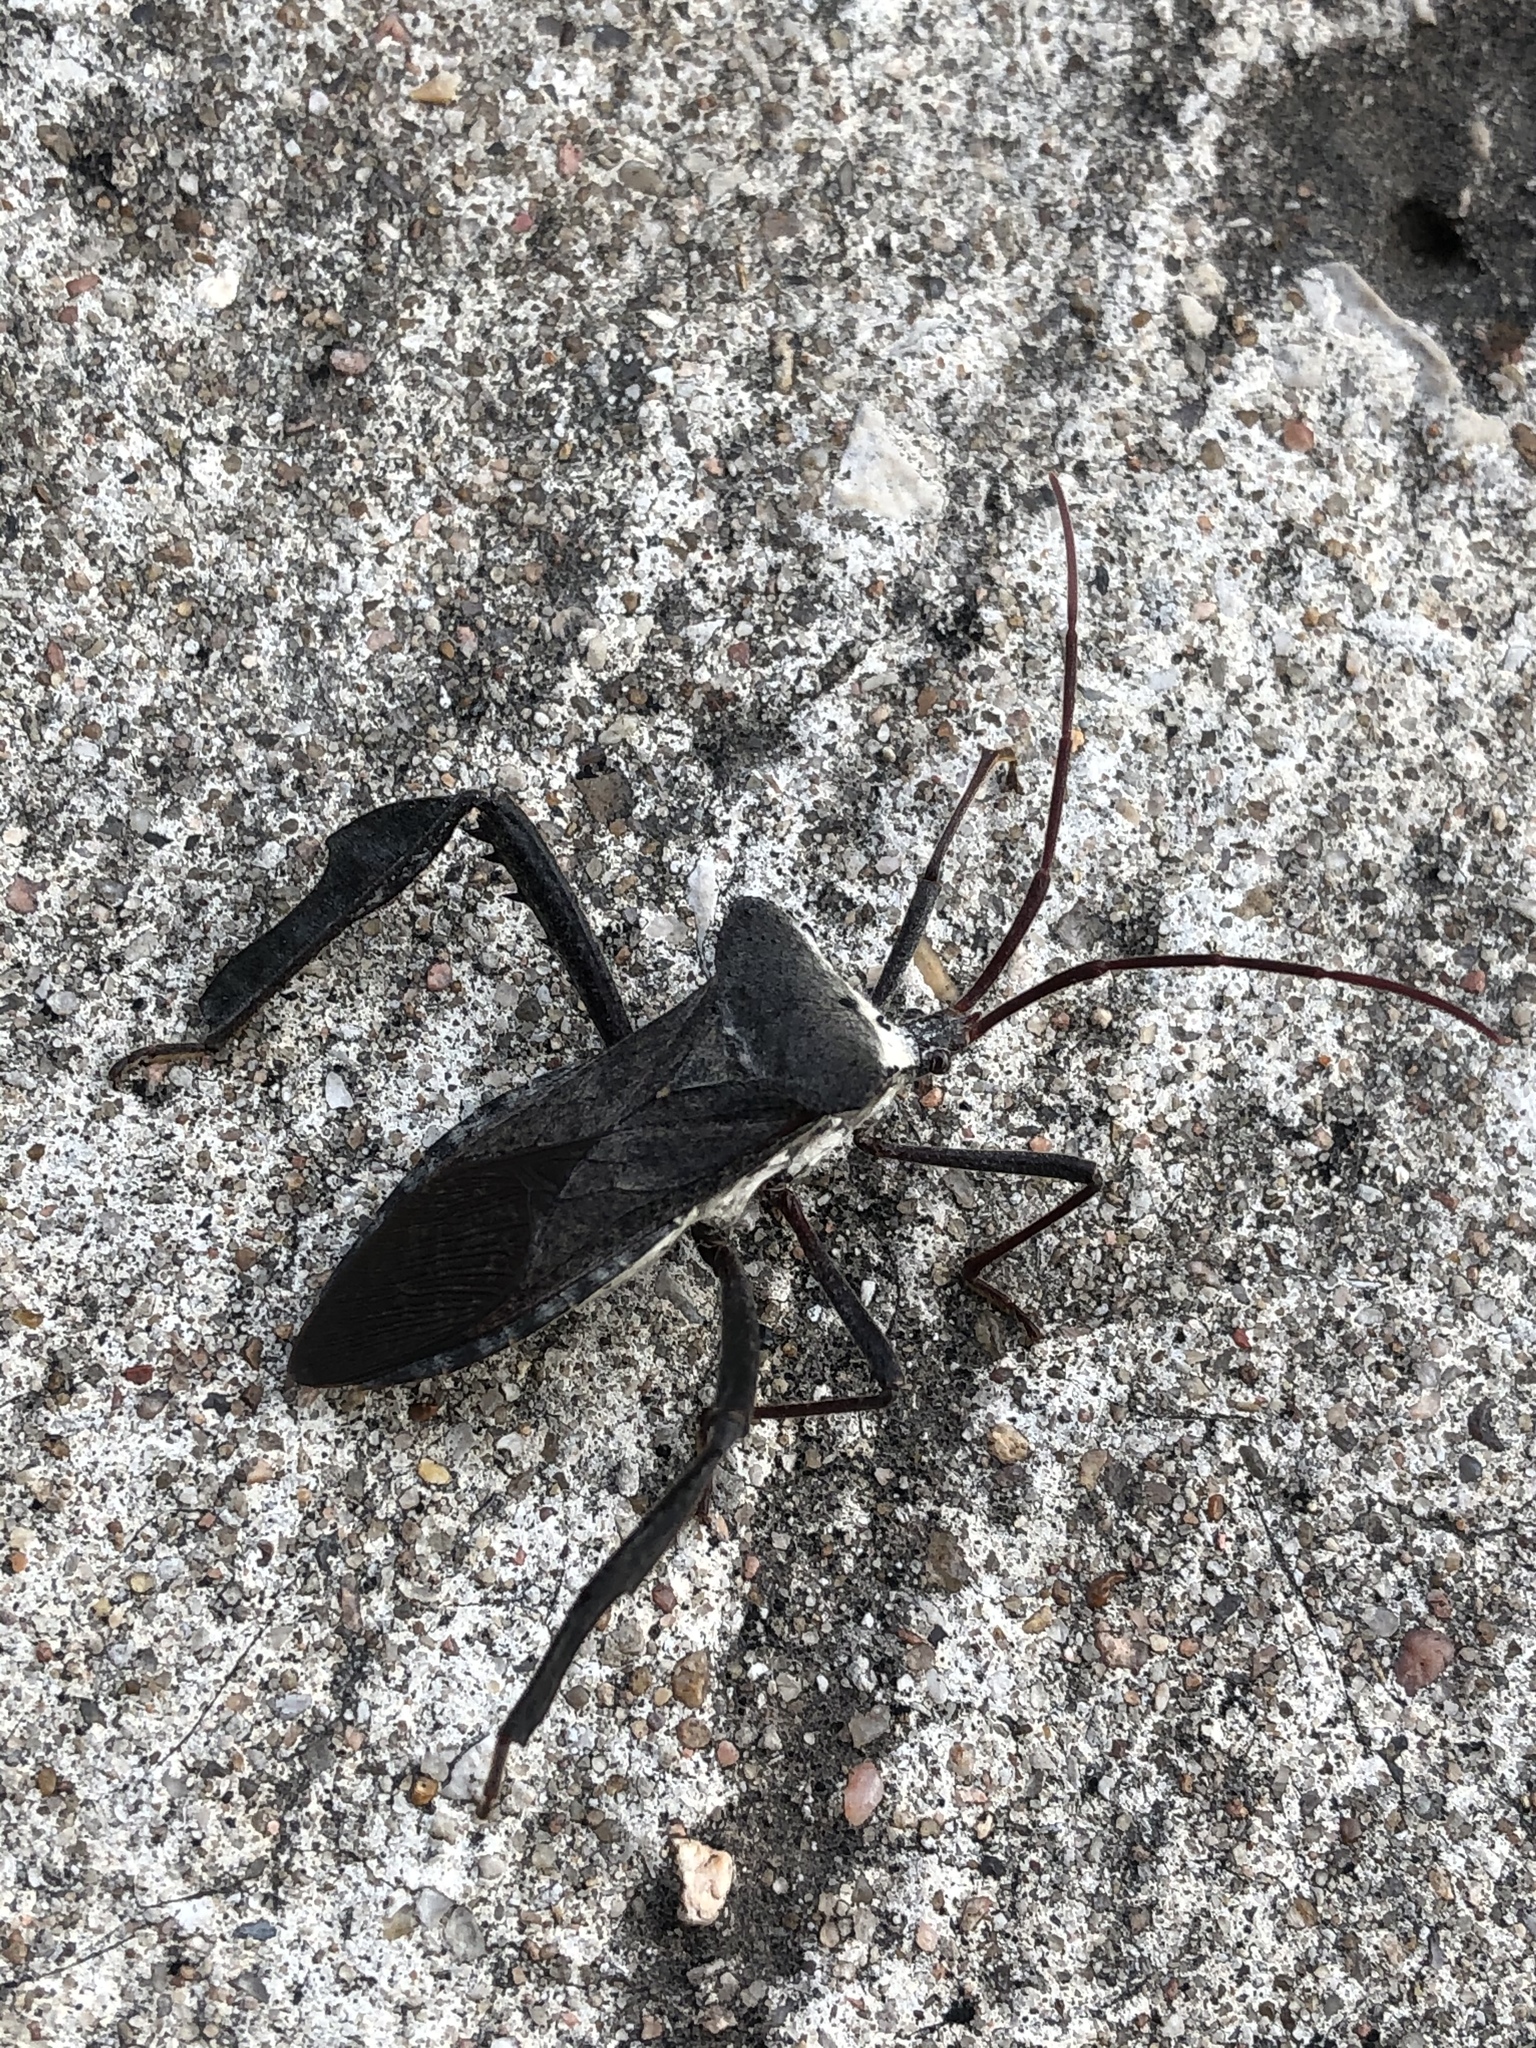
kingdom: Animalia
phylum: Arthropoda
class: Insecta
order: Hemiptera
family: Coreidae
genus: Acanthocephala
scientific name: Acanthocephala declivis
